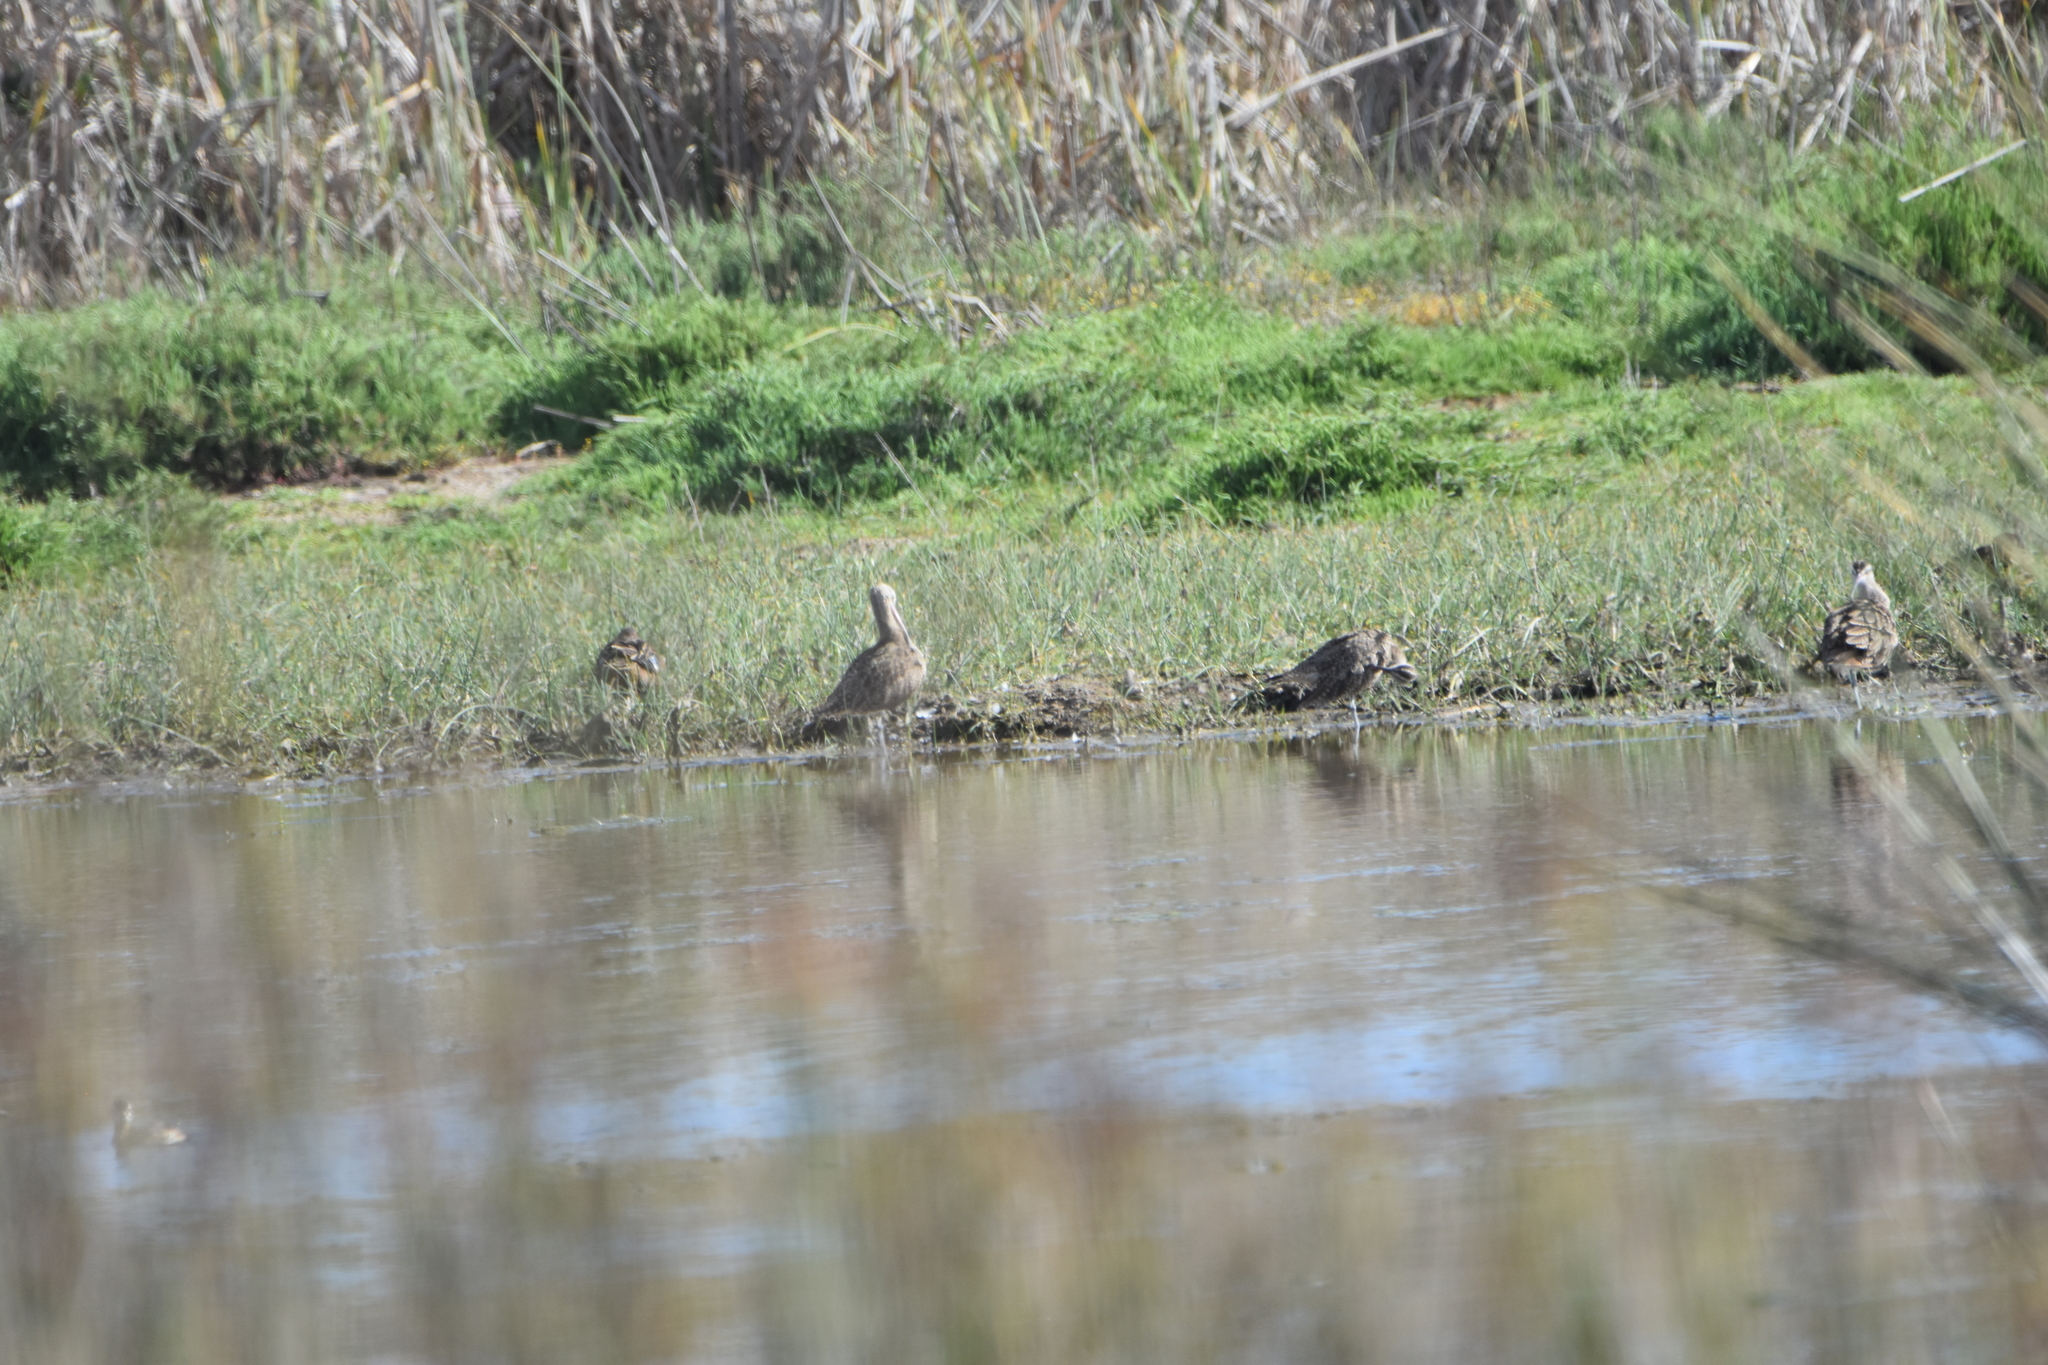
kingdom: Animalia
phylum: Chordata
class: Aves
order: Charadriiformes
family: Scolopacidae
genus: Numenius
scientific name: Numenius phaeopus
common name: Whimbrel
